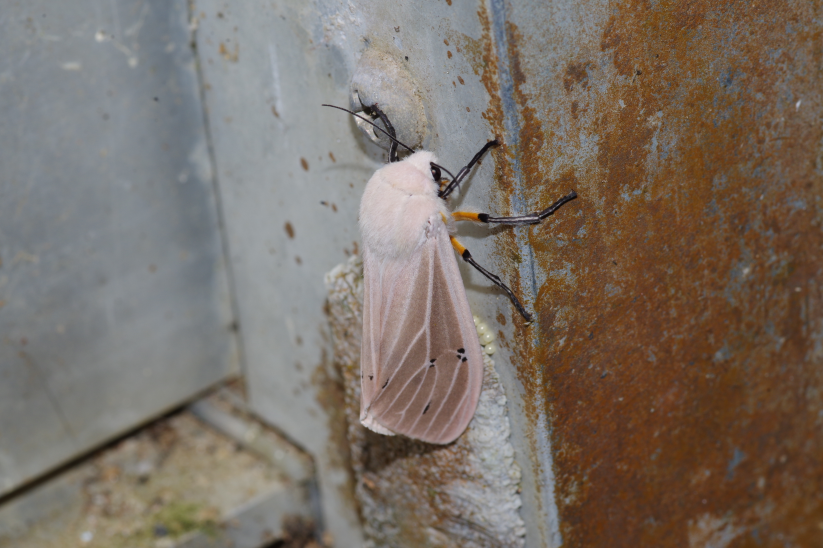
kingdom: Animalia
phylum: Arthropoda
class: Insecta
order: Lepidoptera
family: Erebidae
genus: Creatonotos
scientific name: Creatonotos transiens
